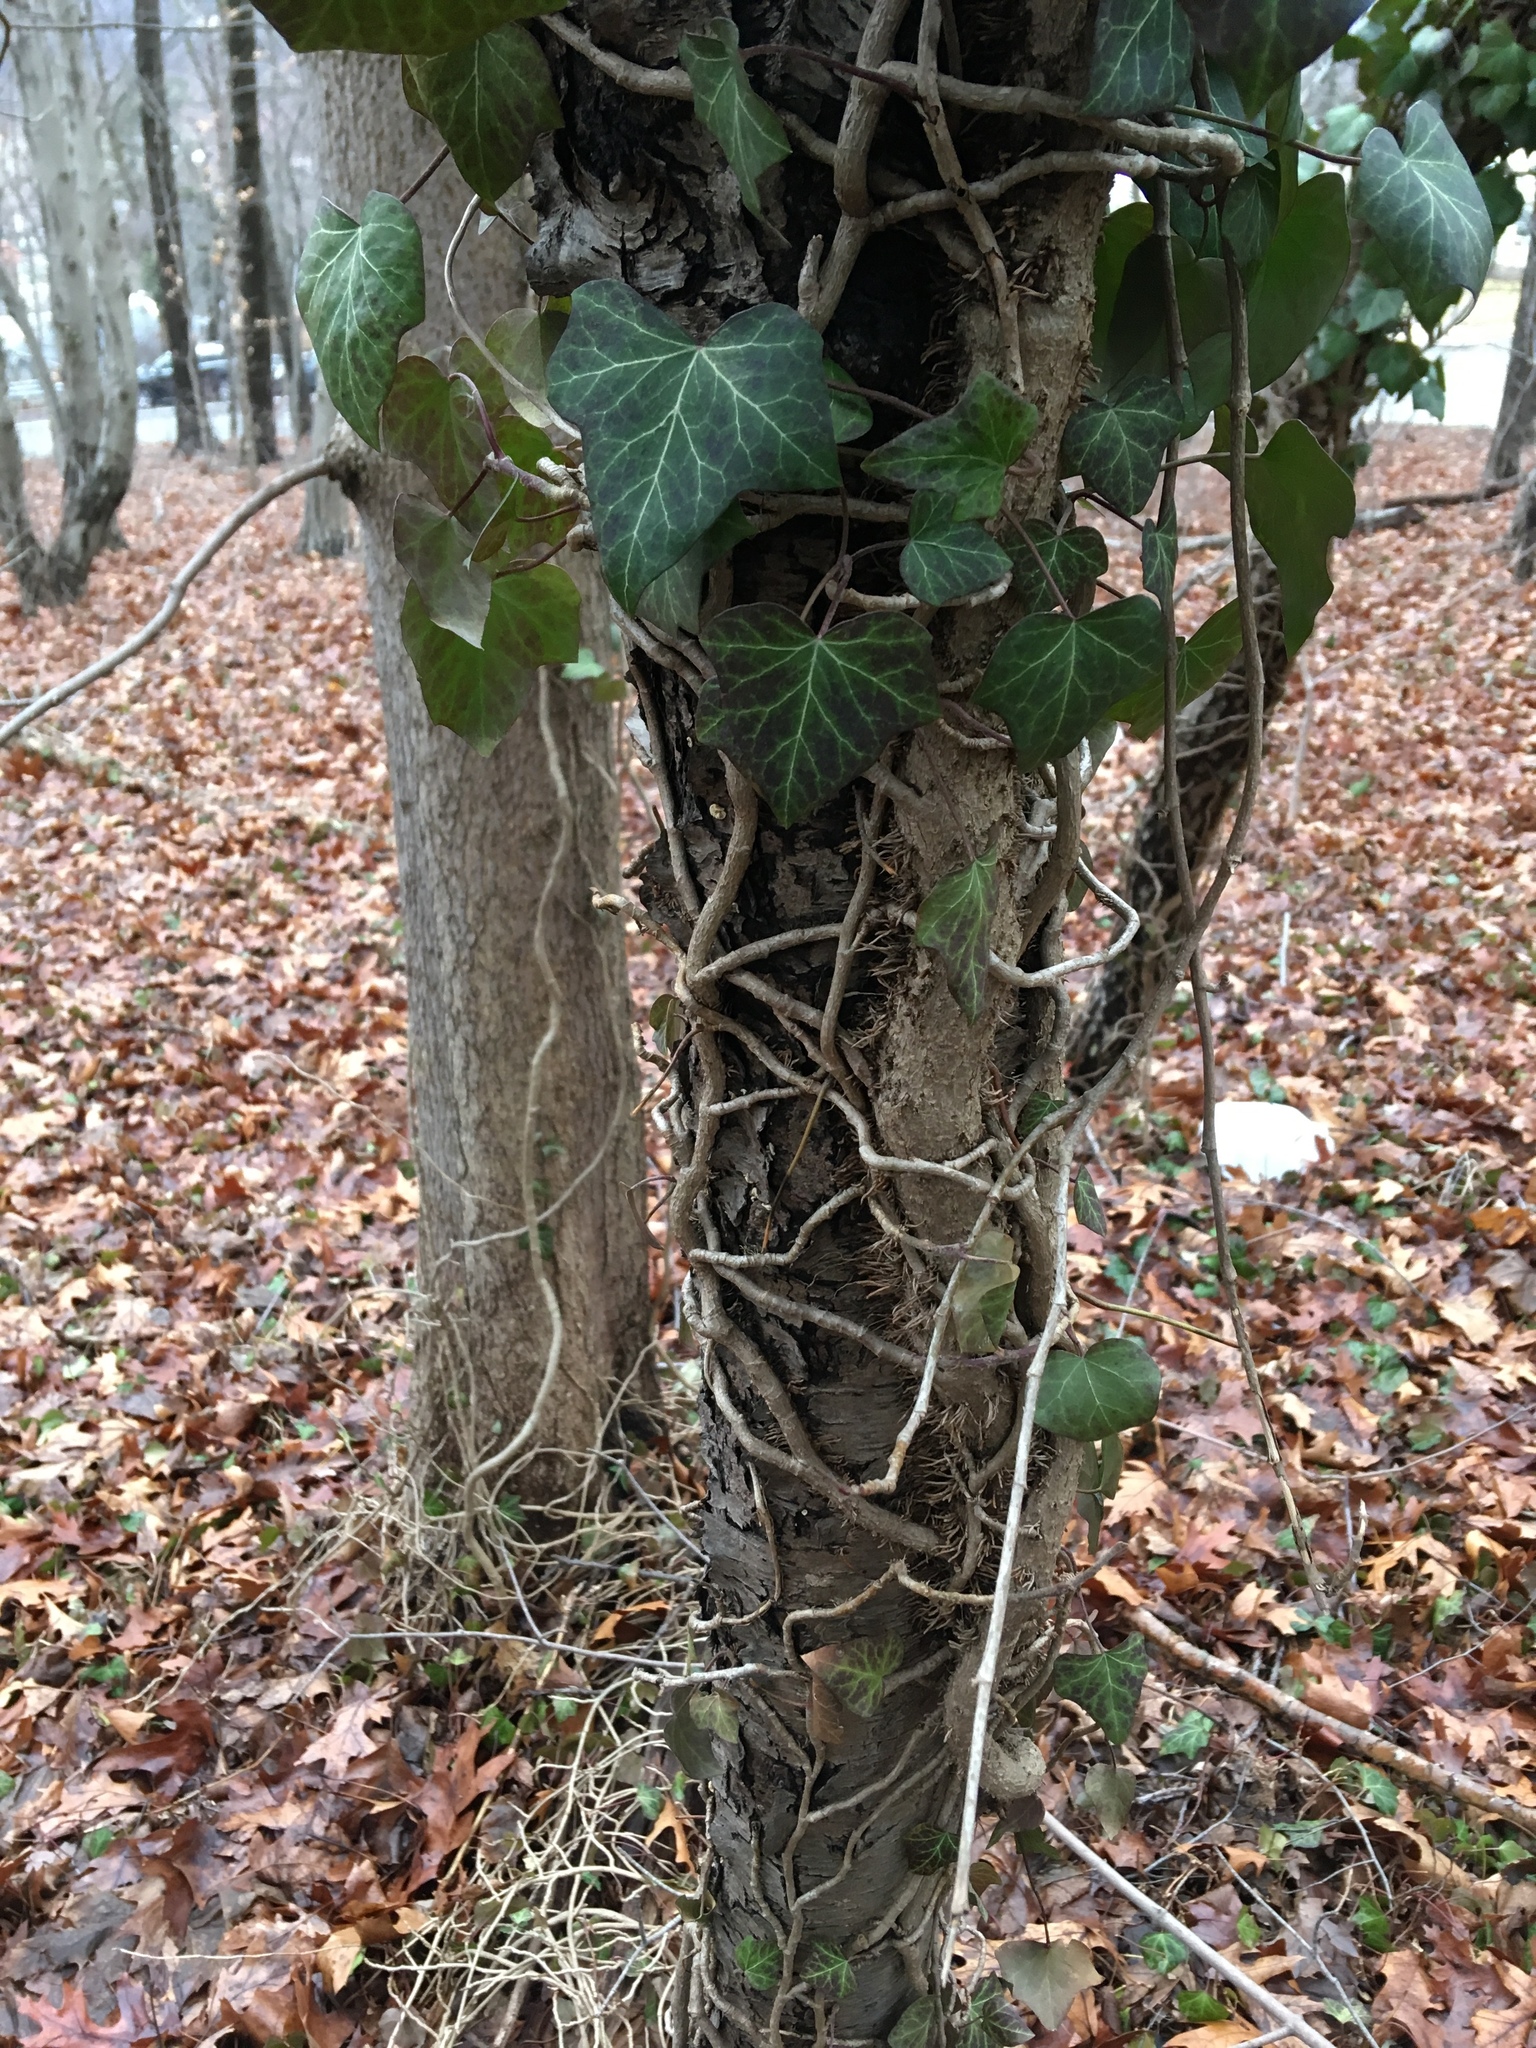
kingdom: Plantae
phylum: Tracheophyta
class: Magnoliopsida
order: Apiales
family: Araliaceae
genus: Hedera
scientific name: Hedera helix
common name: Ivy
